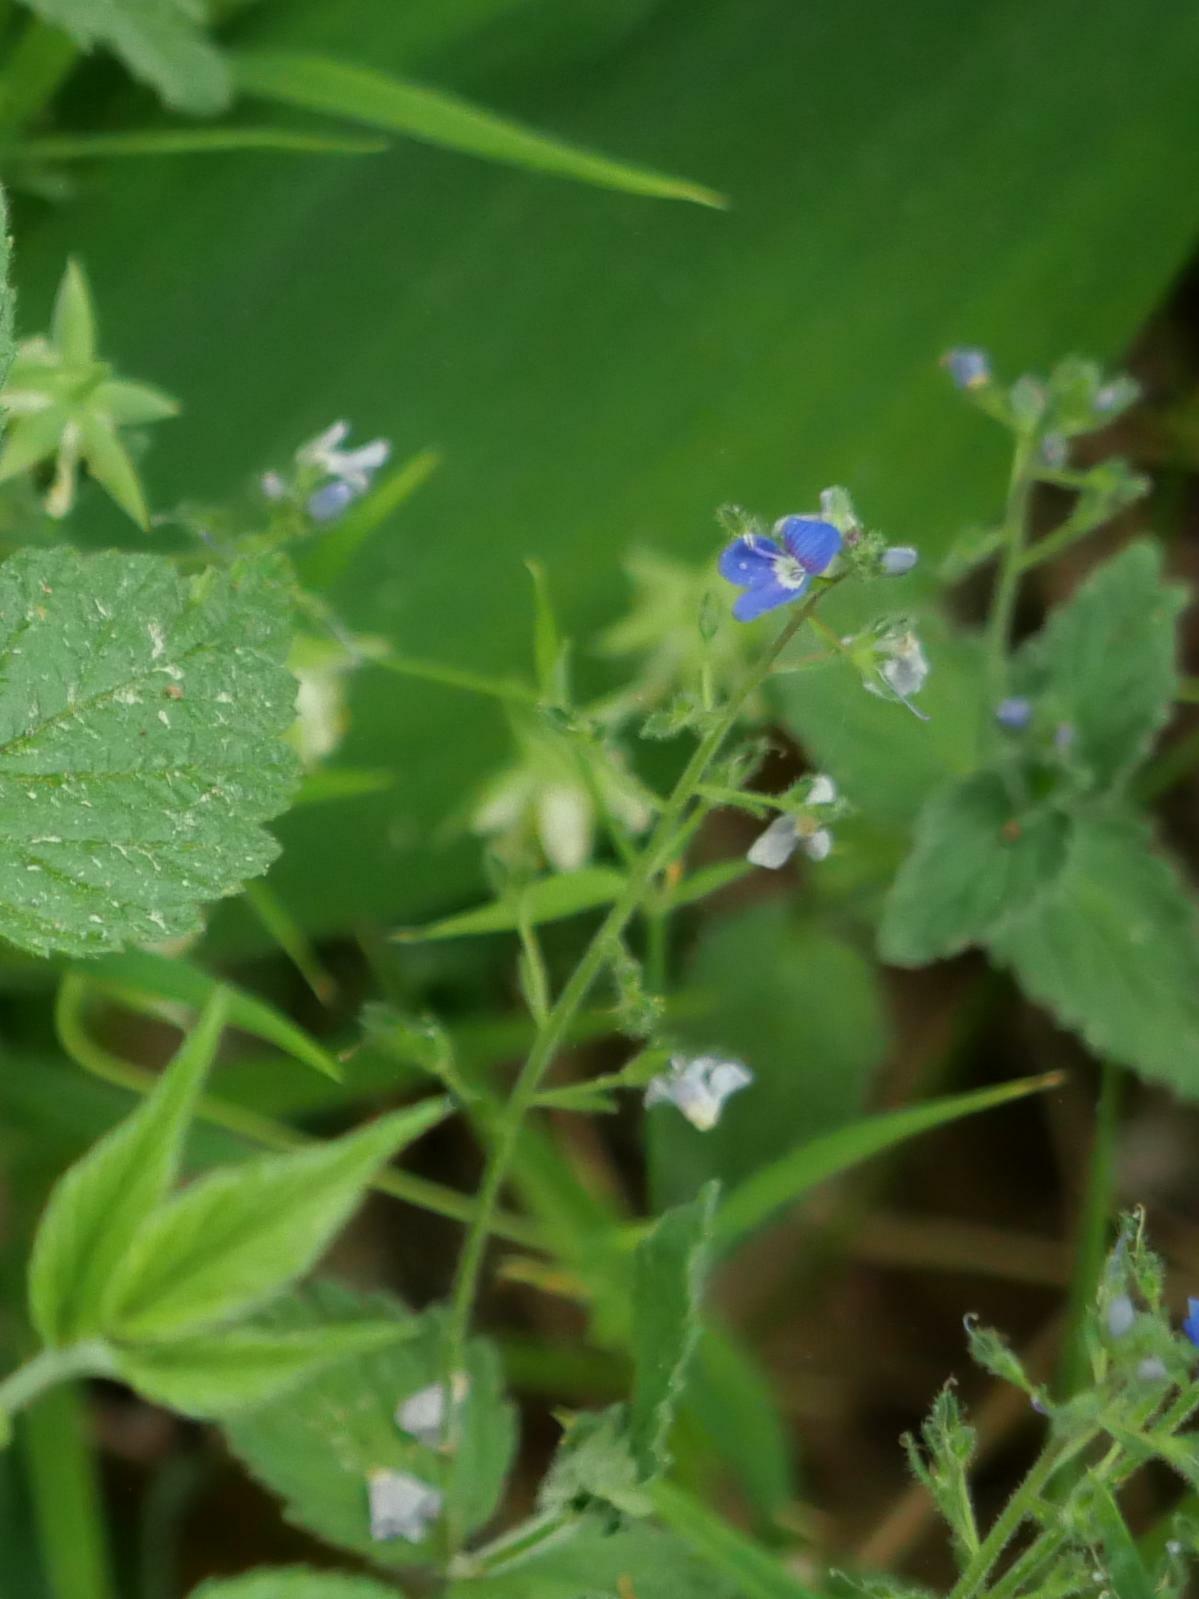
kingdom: Plantae
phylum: Tracheophyta
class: Magnoliopsida
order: Lamiales
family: Plantaginaceae
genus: Veronica
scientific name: Veronica chamaedrys
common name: Germander speedwell
